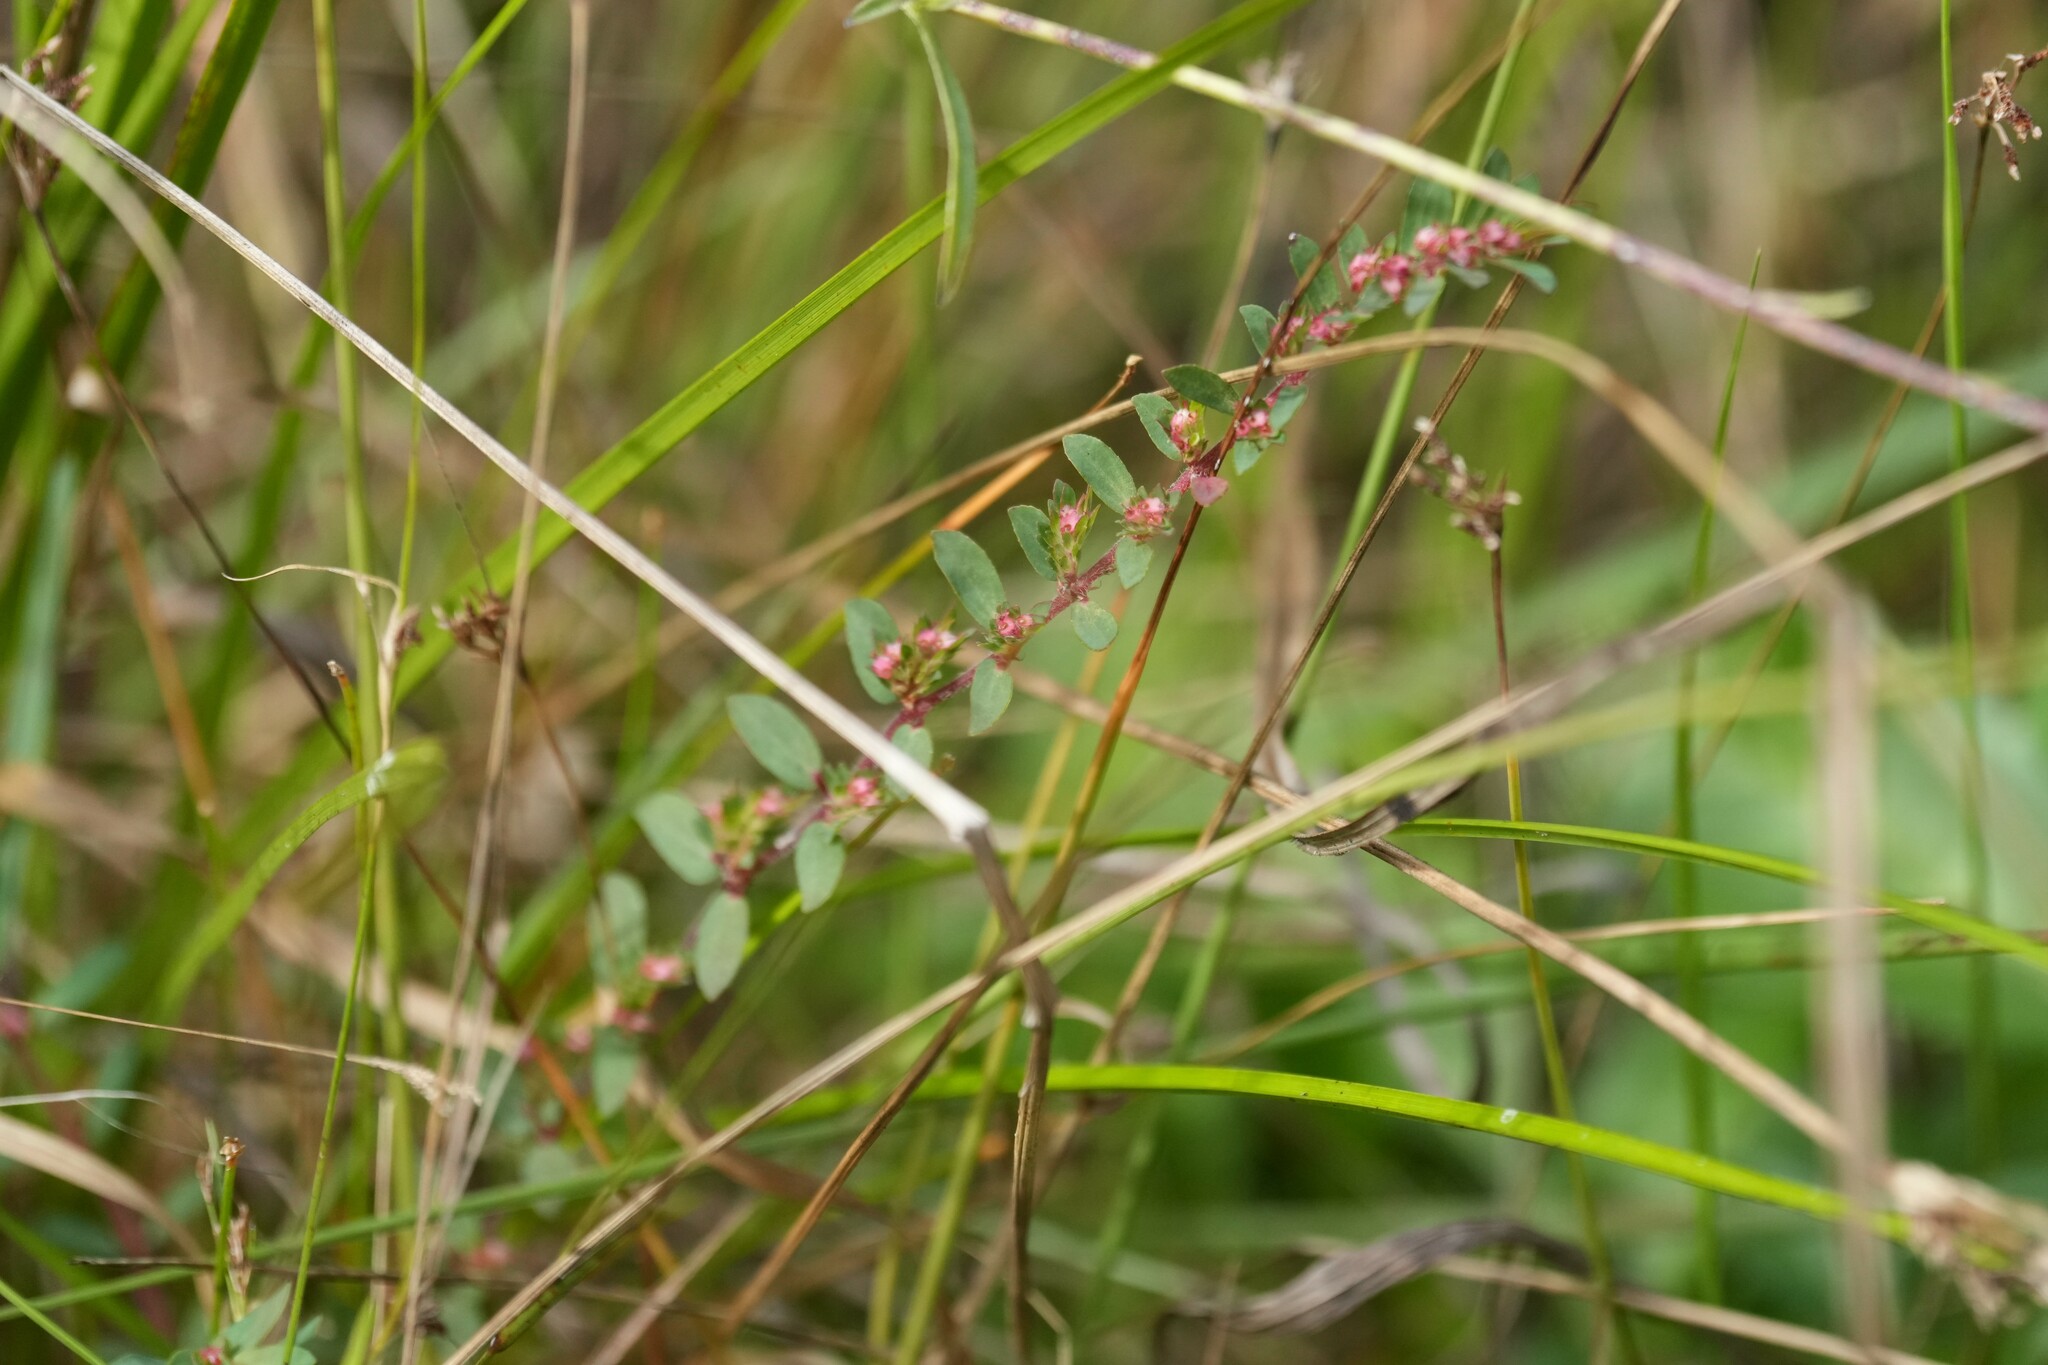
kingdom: Plantae
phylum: Tracheophyta
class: Magnoliopsida
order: Malpighiales
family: Euphorbiaceae
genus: Euphorbia
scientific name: Euphorbia conferta
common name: Everglade key sandmat
